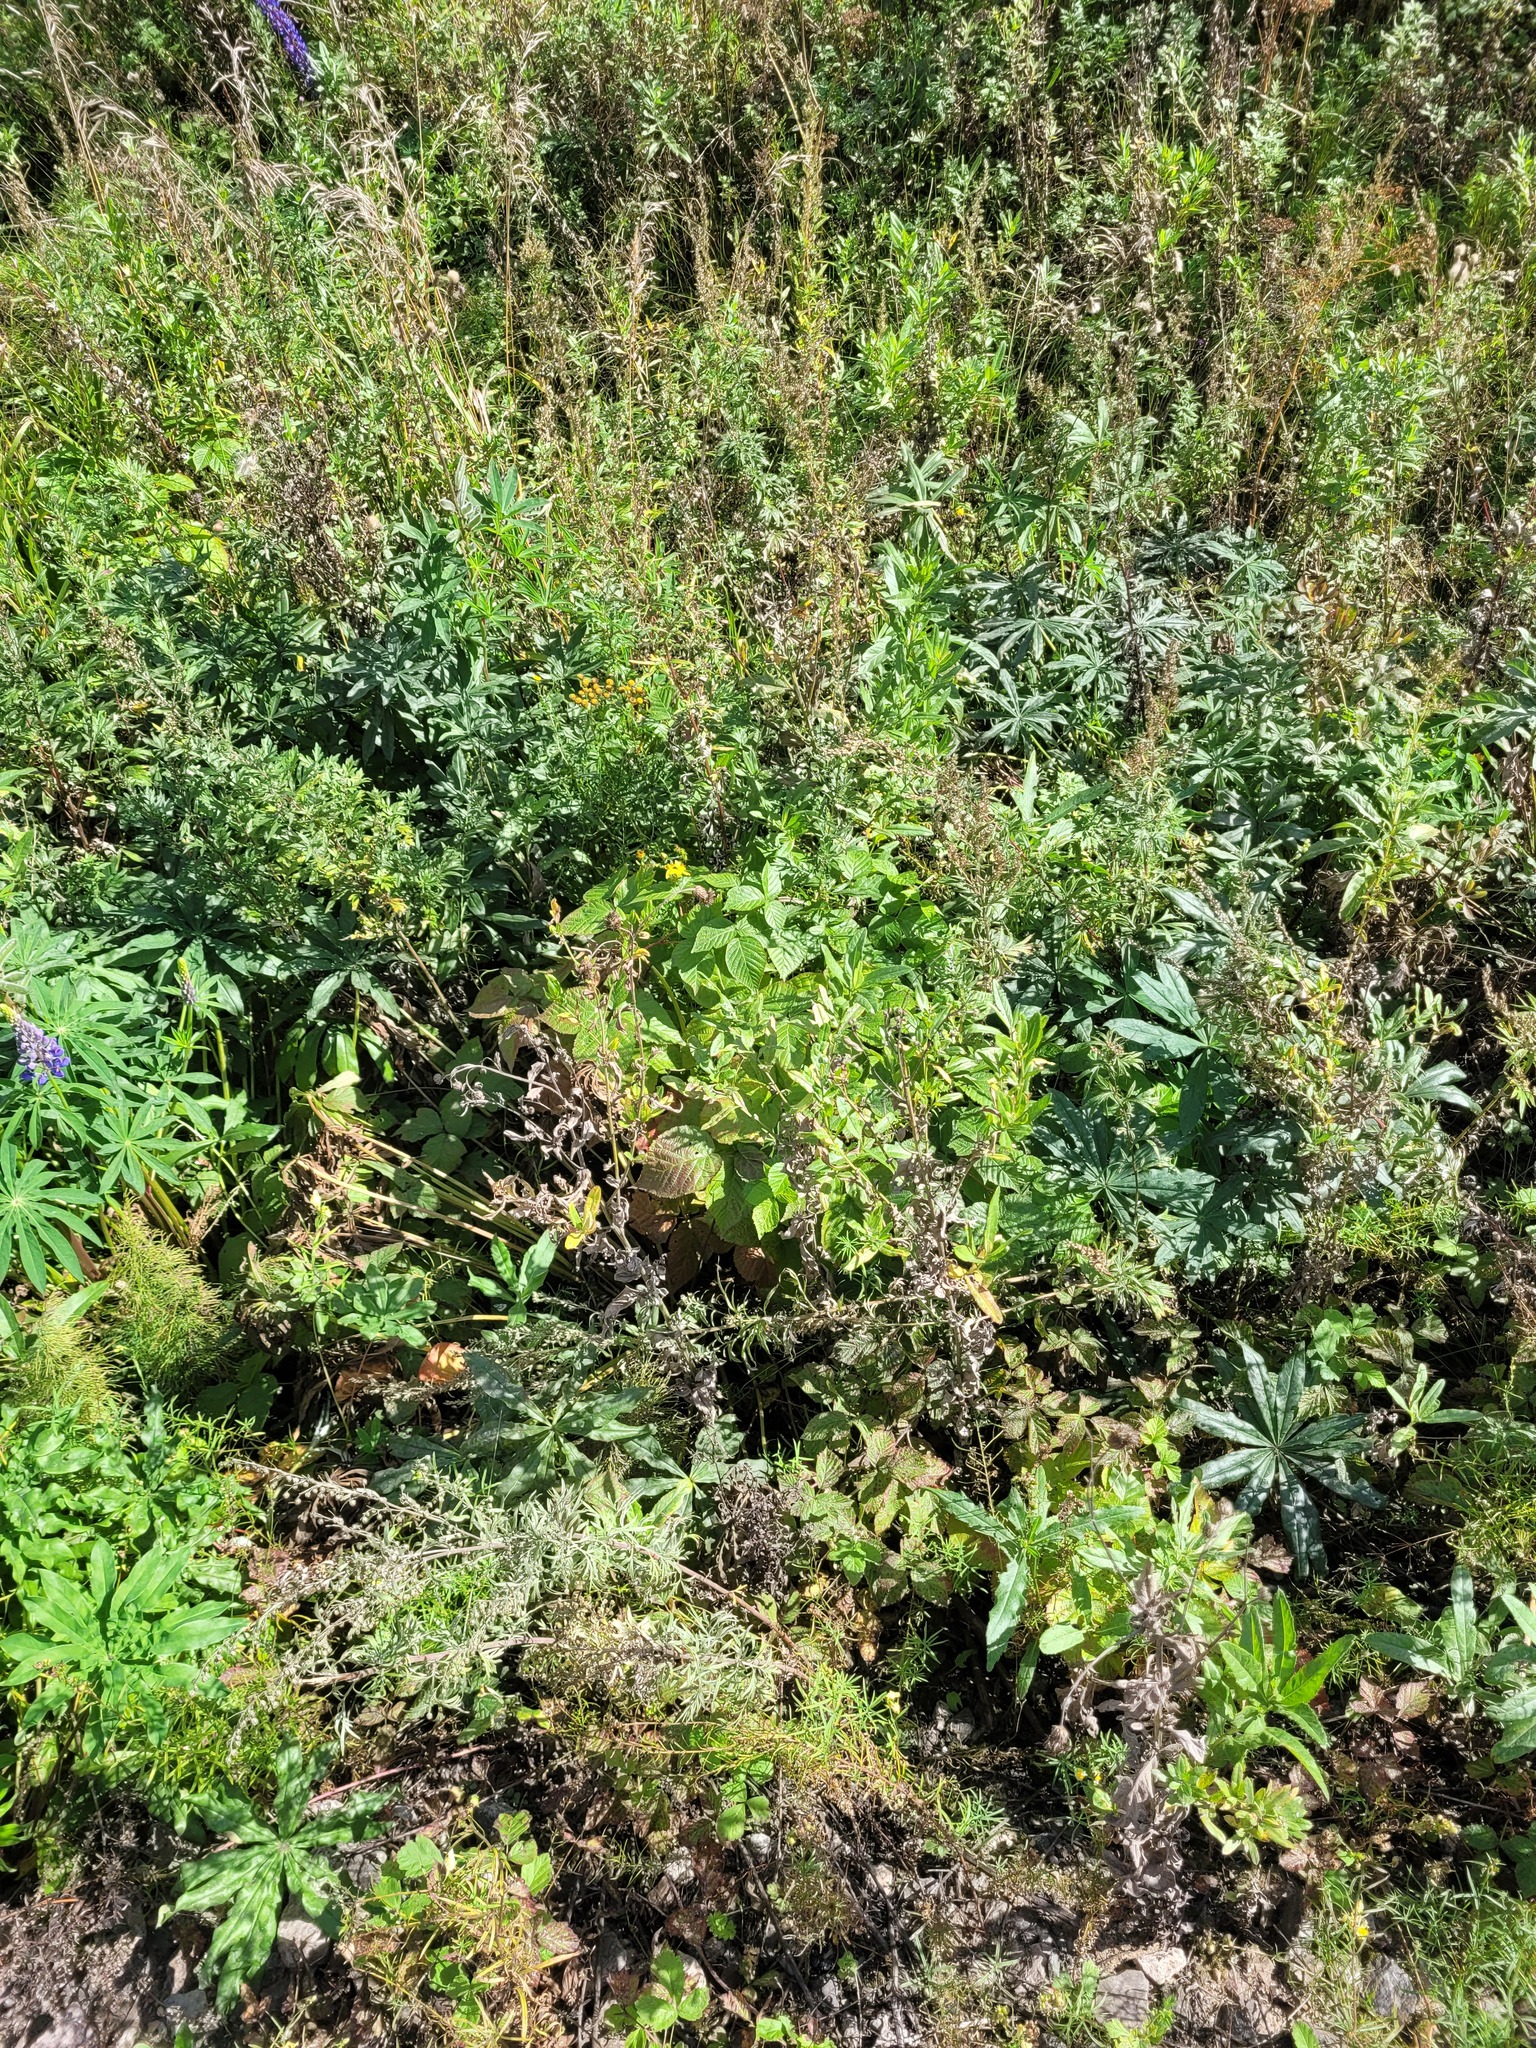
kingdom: Plantae
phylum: Tracheophyta
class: Magnoliopsida
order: Asterales
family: Asteraceae
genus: Cirsium
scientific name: Cirsium arvense
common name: Creeping thistle
